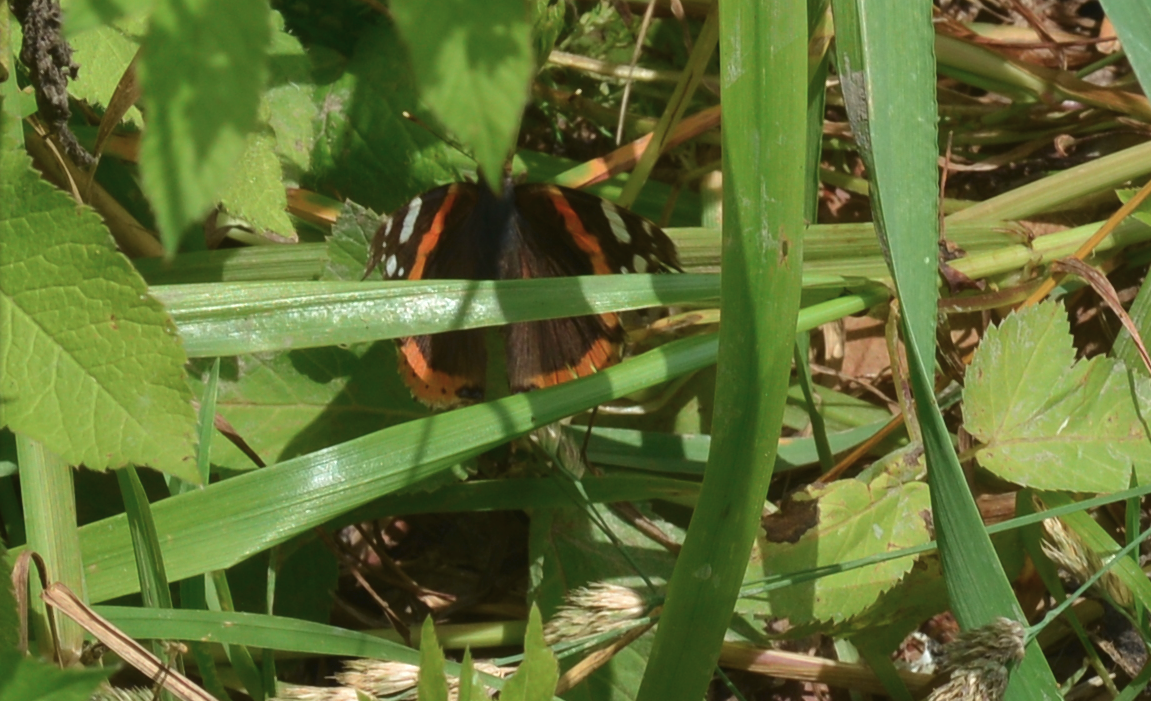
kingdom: Animalia
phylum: Arthropoda
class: Insecta
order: Lepidoptera
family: Nymphalidae
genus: Vanessa
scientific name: Vanessa atalanta
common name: Red admiral
